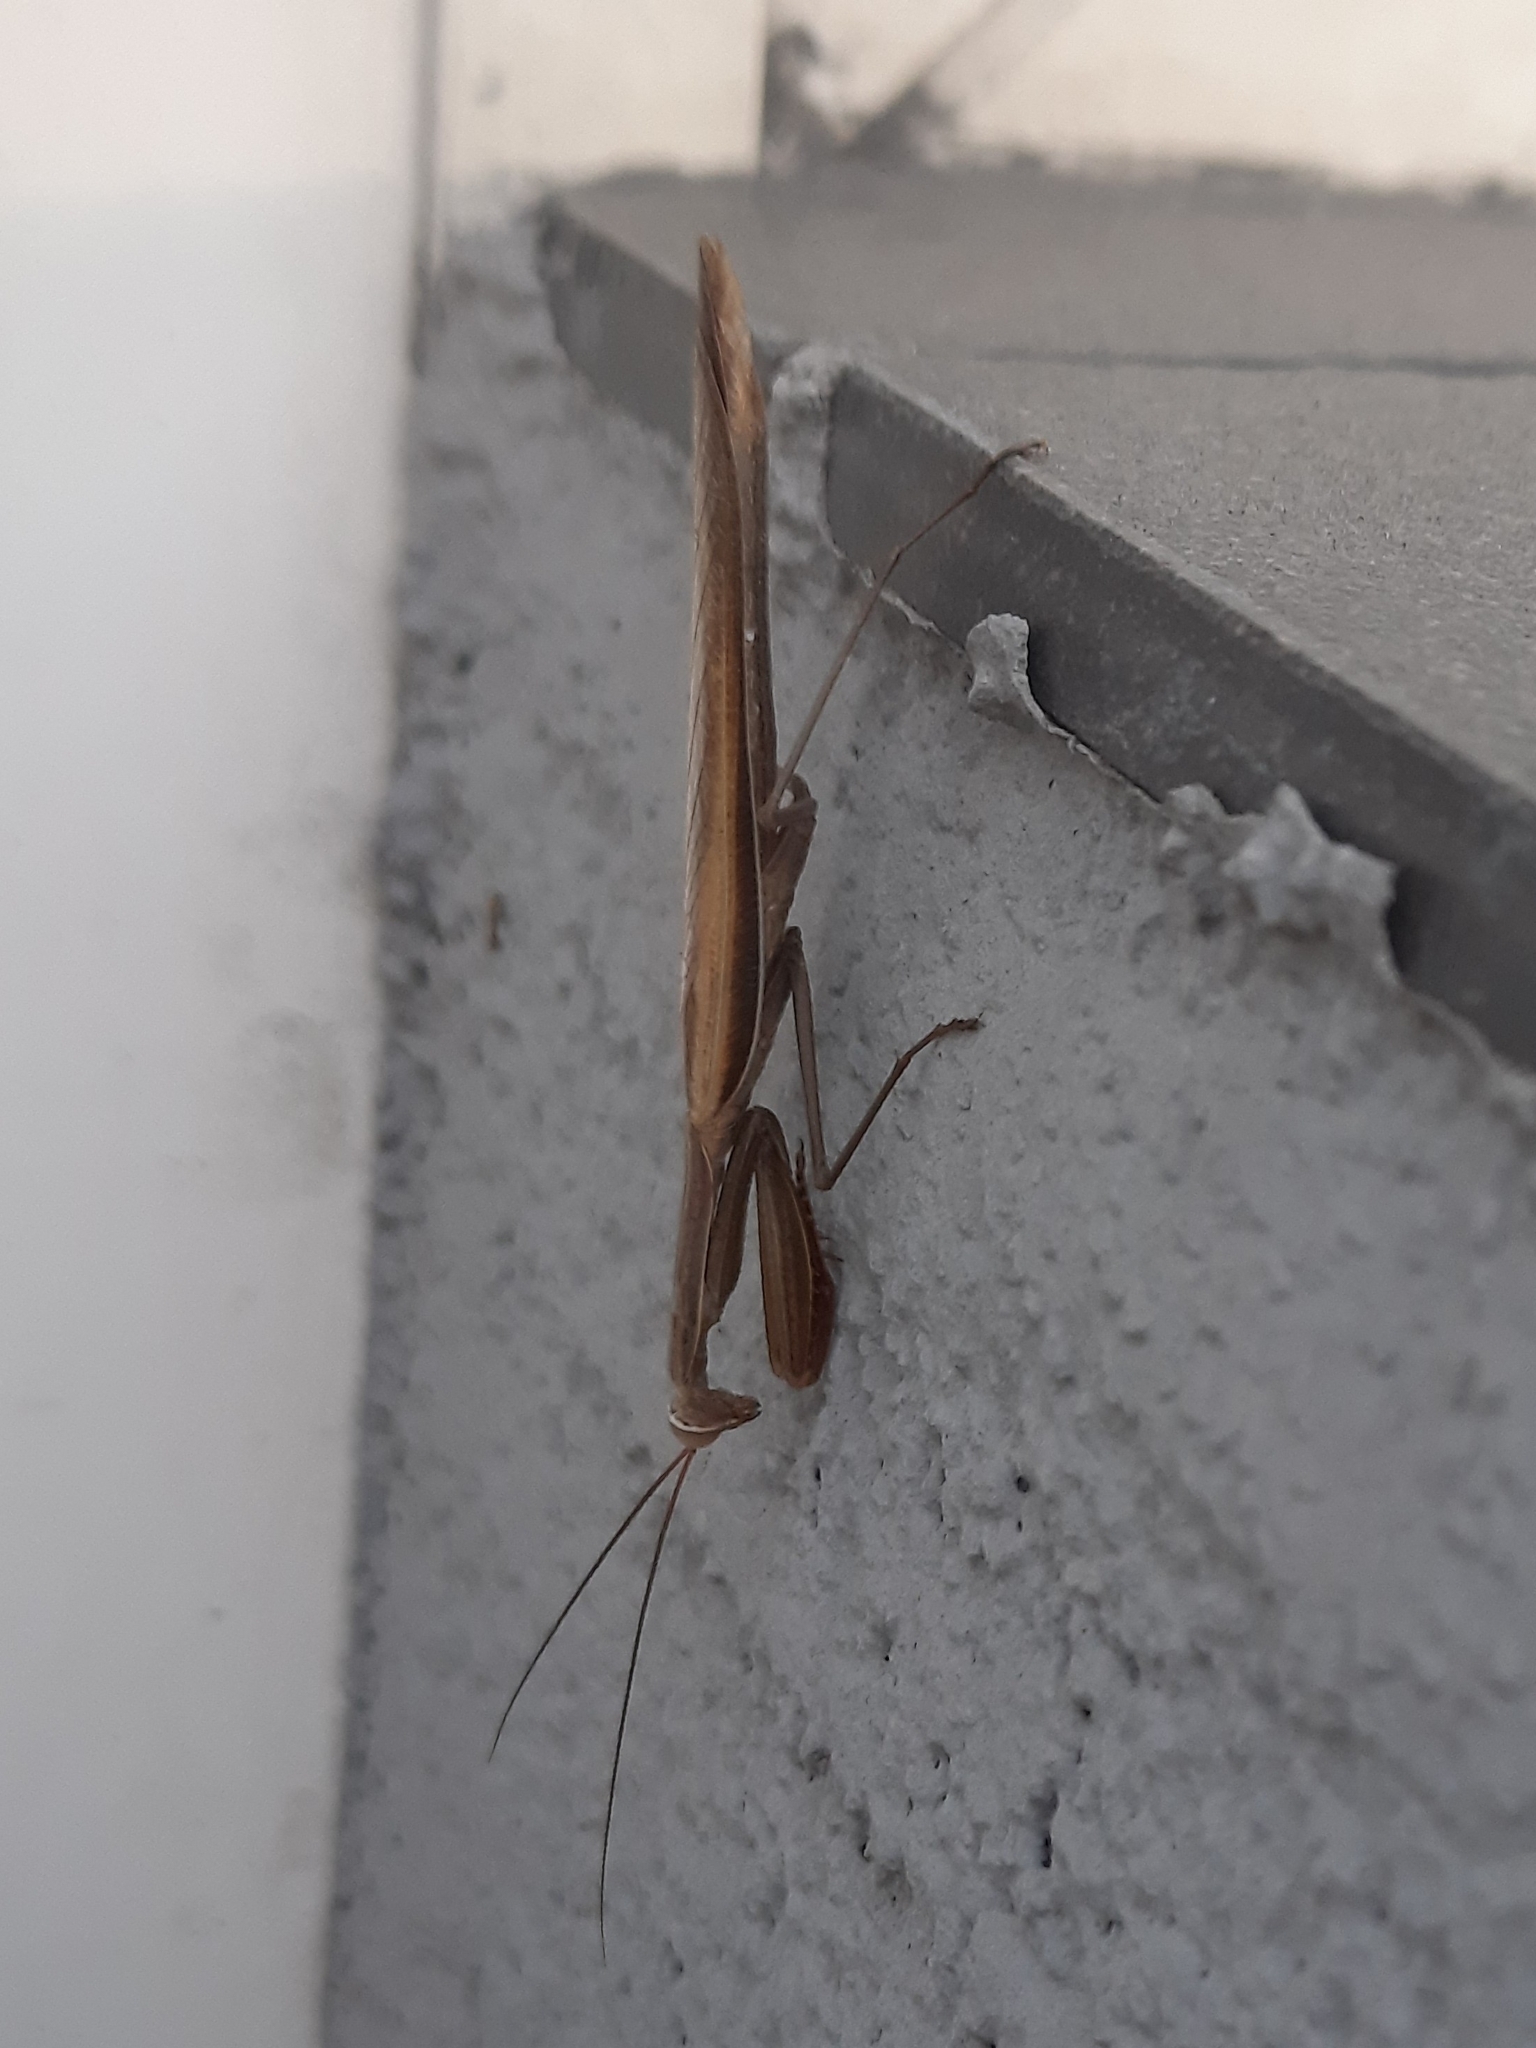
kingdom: Animalia
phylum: Arthropoda
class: Insecta
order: Mantodea
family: Mantidae
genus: Mantis
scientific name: Mantis religiosa
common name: Praying mantis
